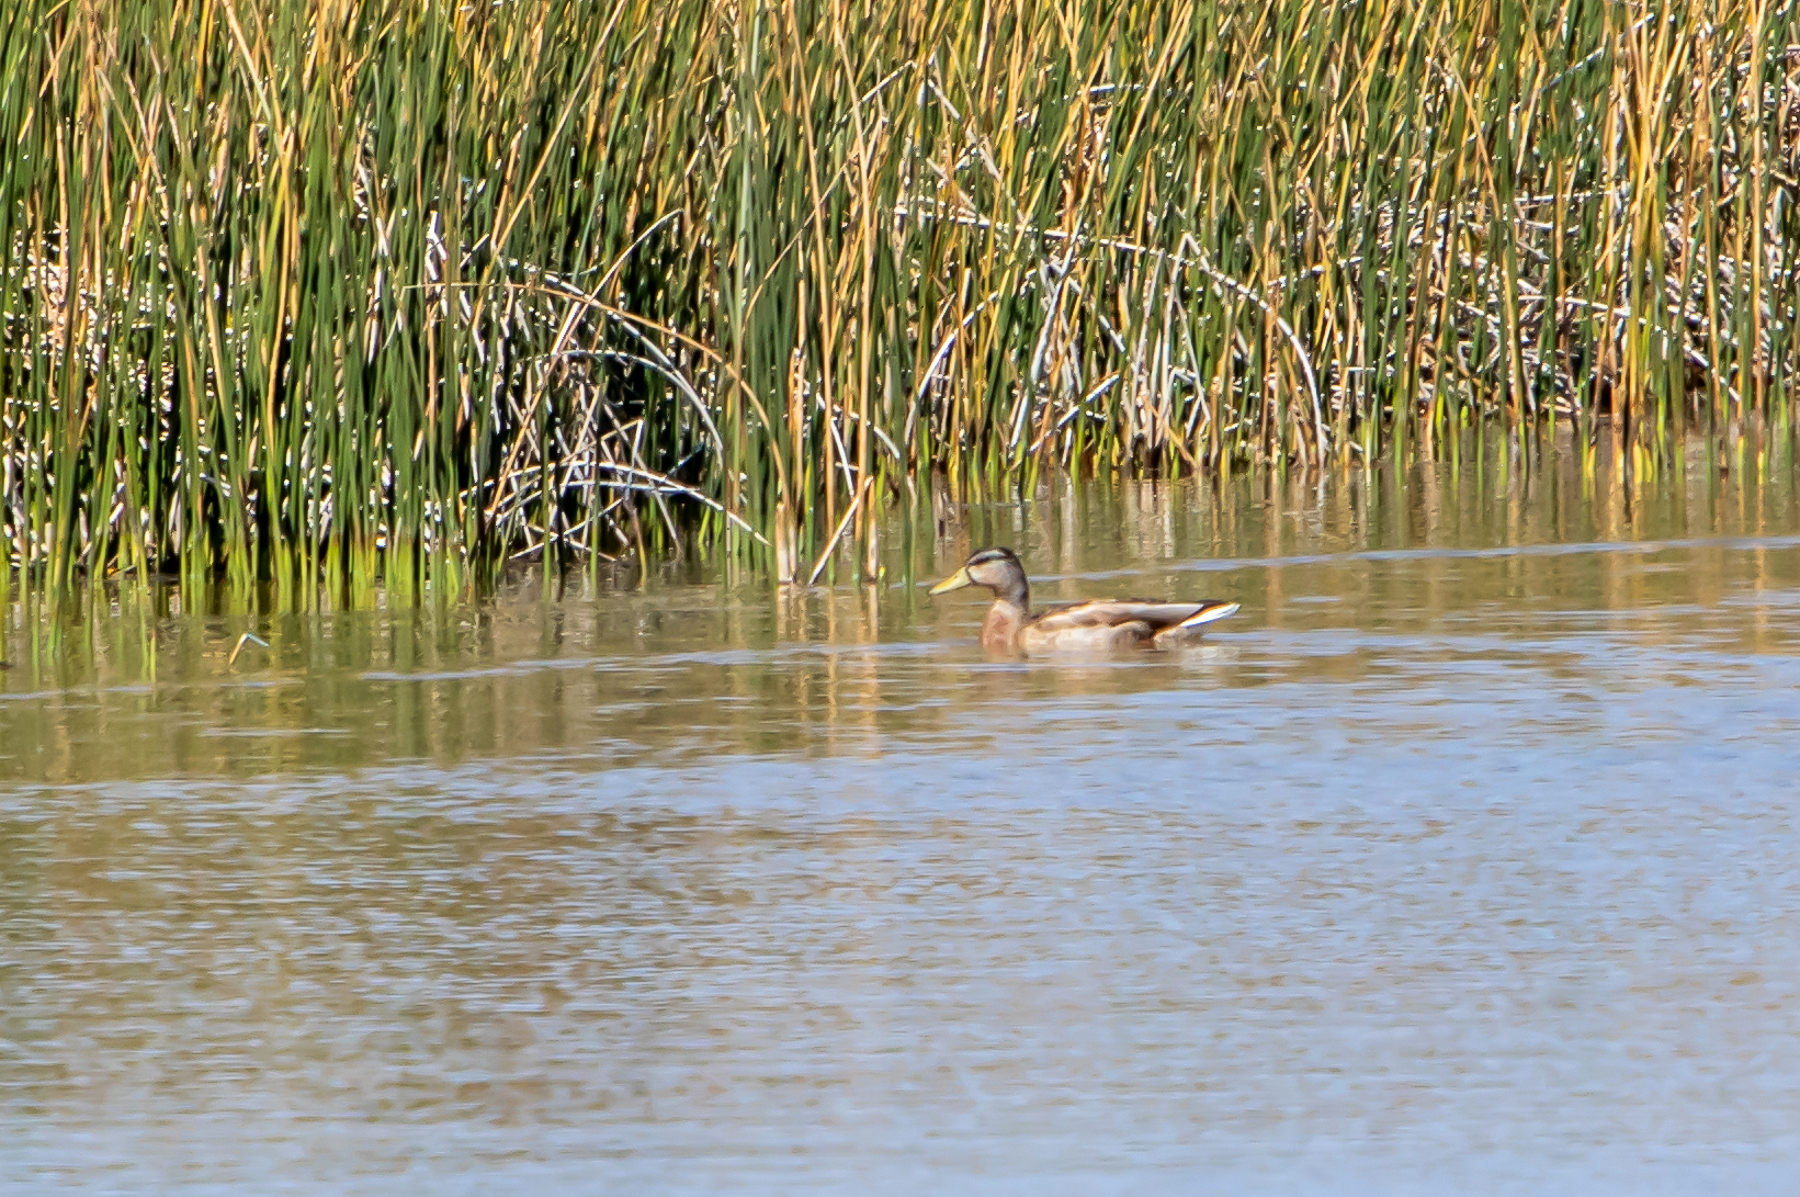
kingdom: Animalia
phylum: Chordata
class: Aves
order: Anseriformes
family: Anatidae
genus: Anas
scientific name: Anas platyrhynchos
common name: Mallard
